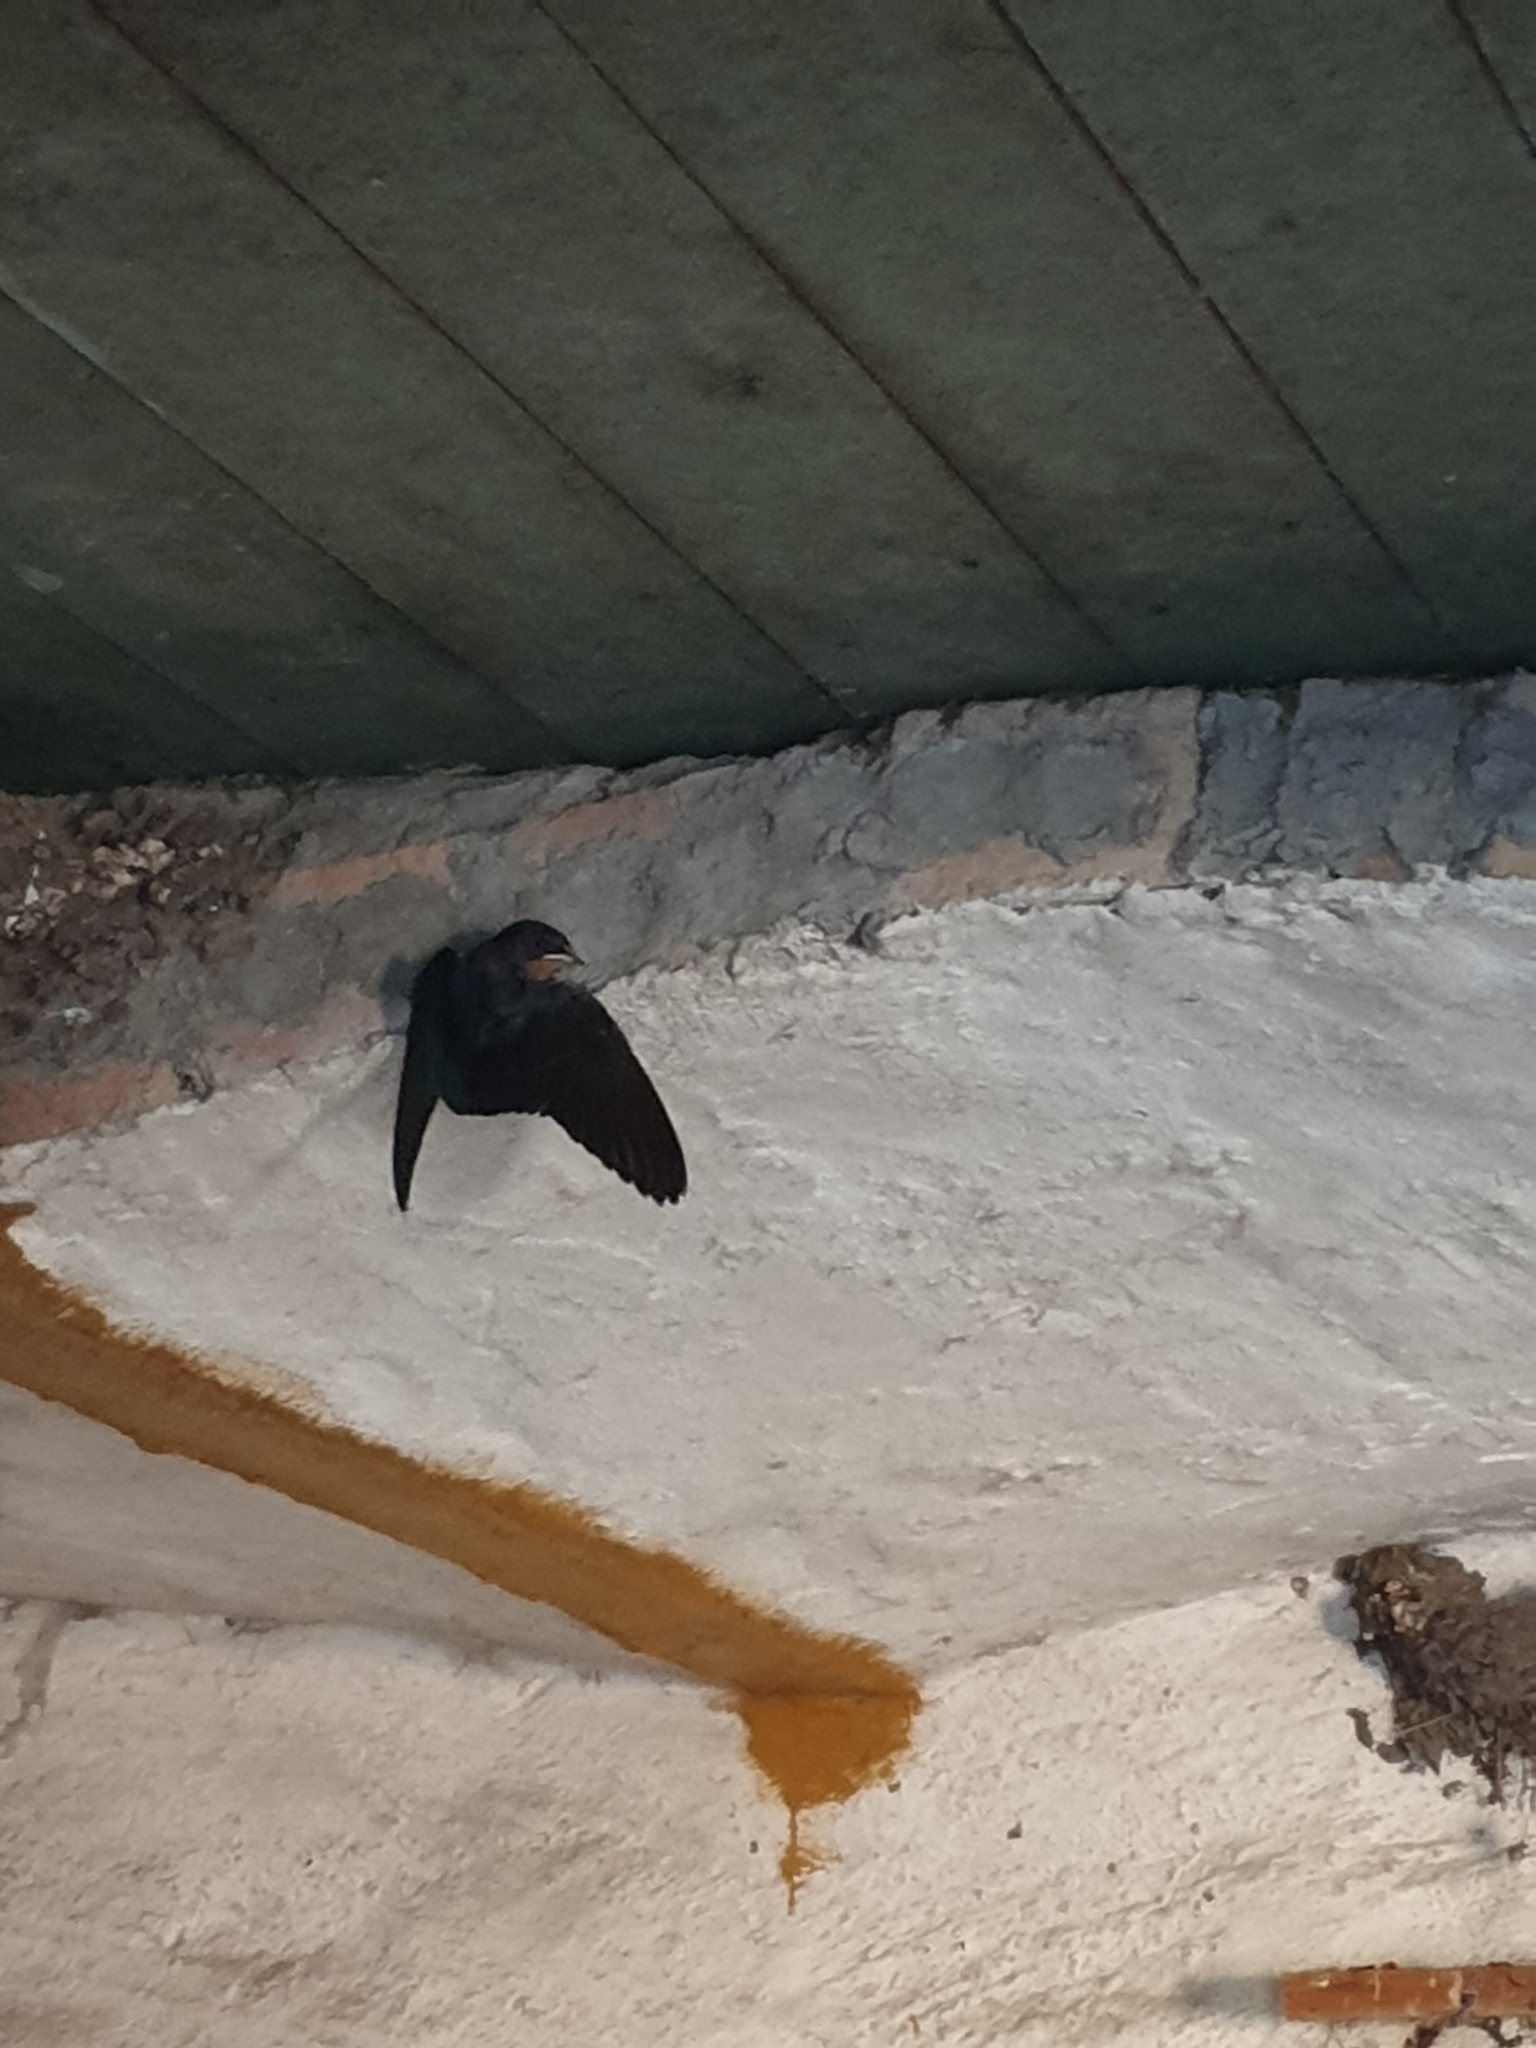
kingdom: Animalia
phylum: Chordata
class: Aves
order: Passeriformes
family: Hirundinidae
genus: Hirundo
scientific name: Hirundo rustica
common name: Barn swallow
